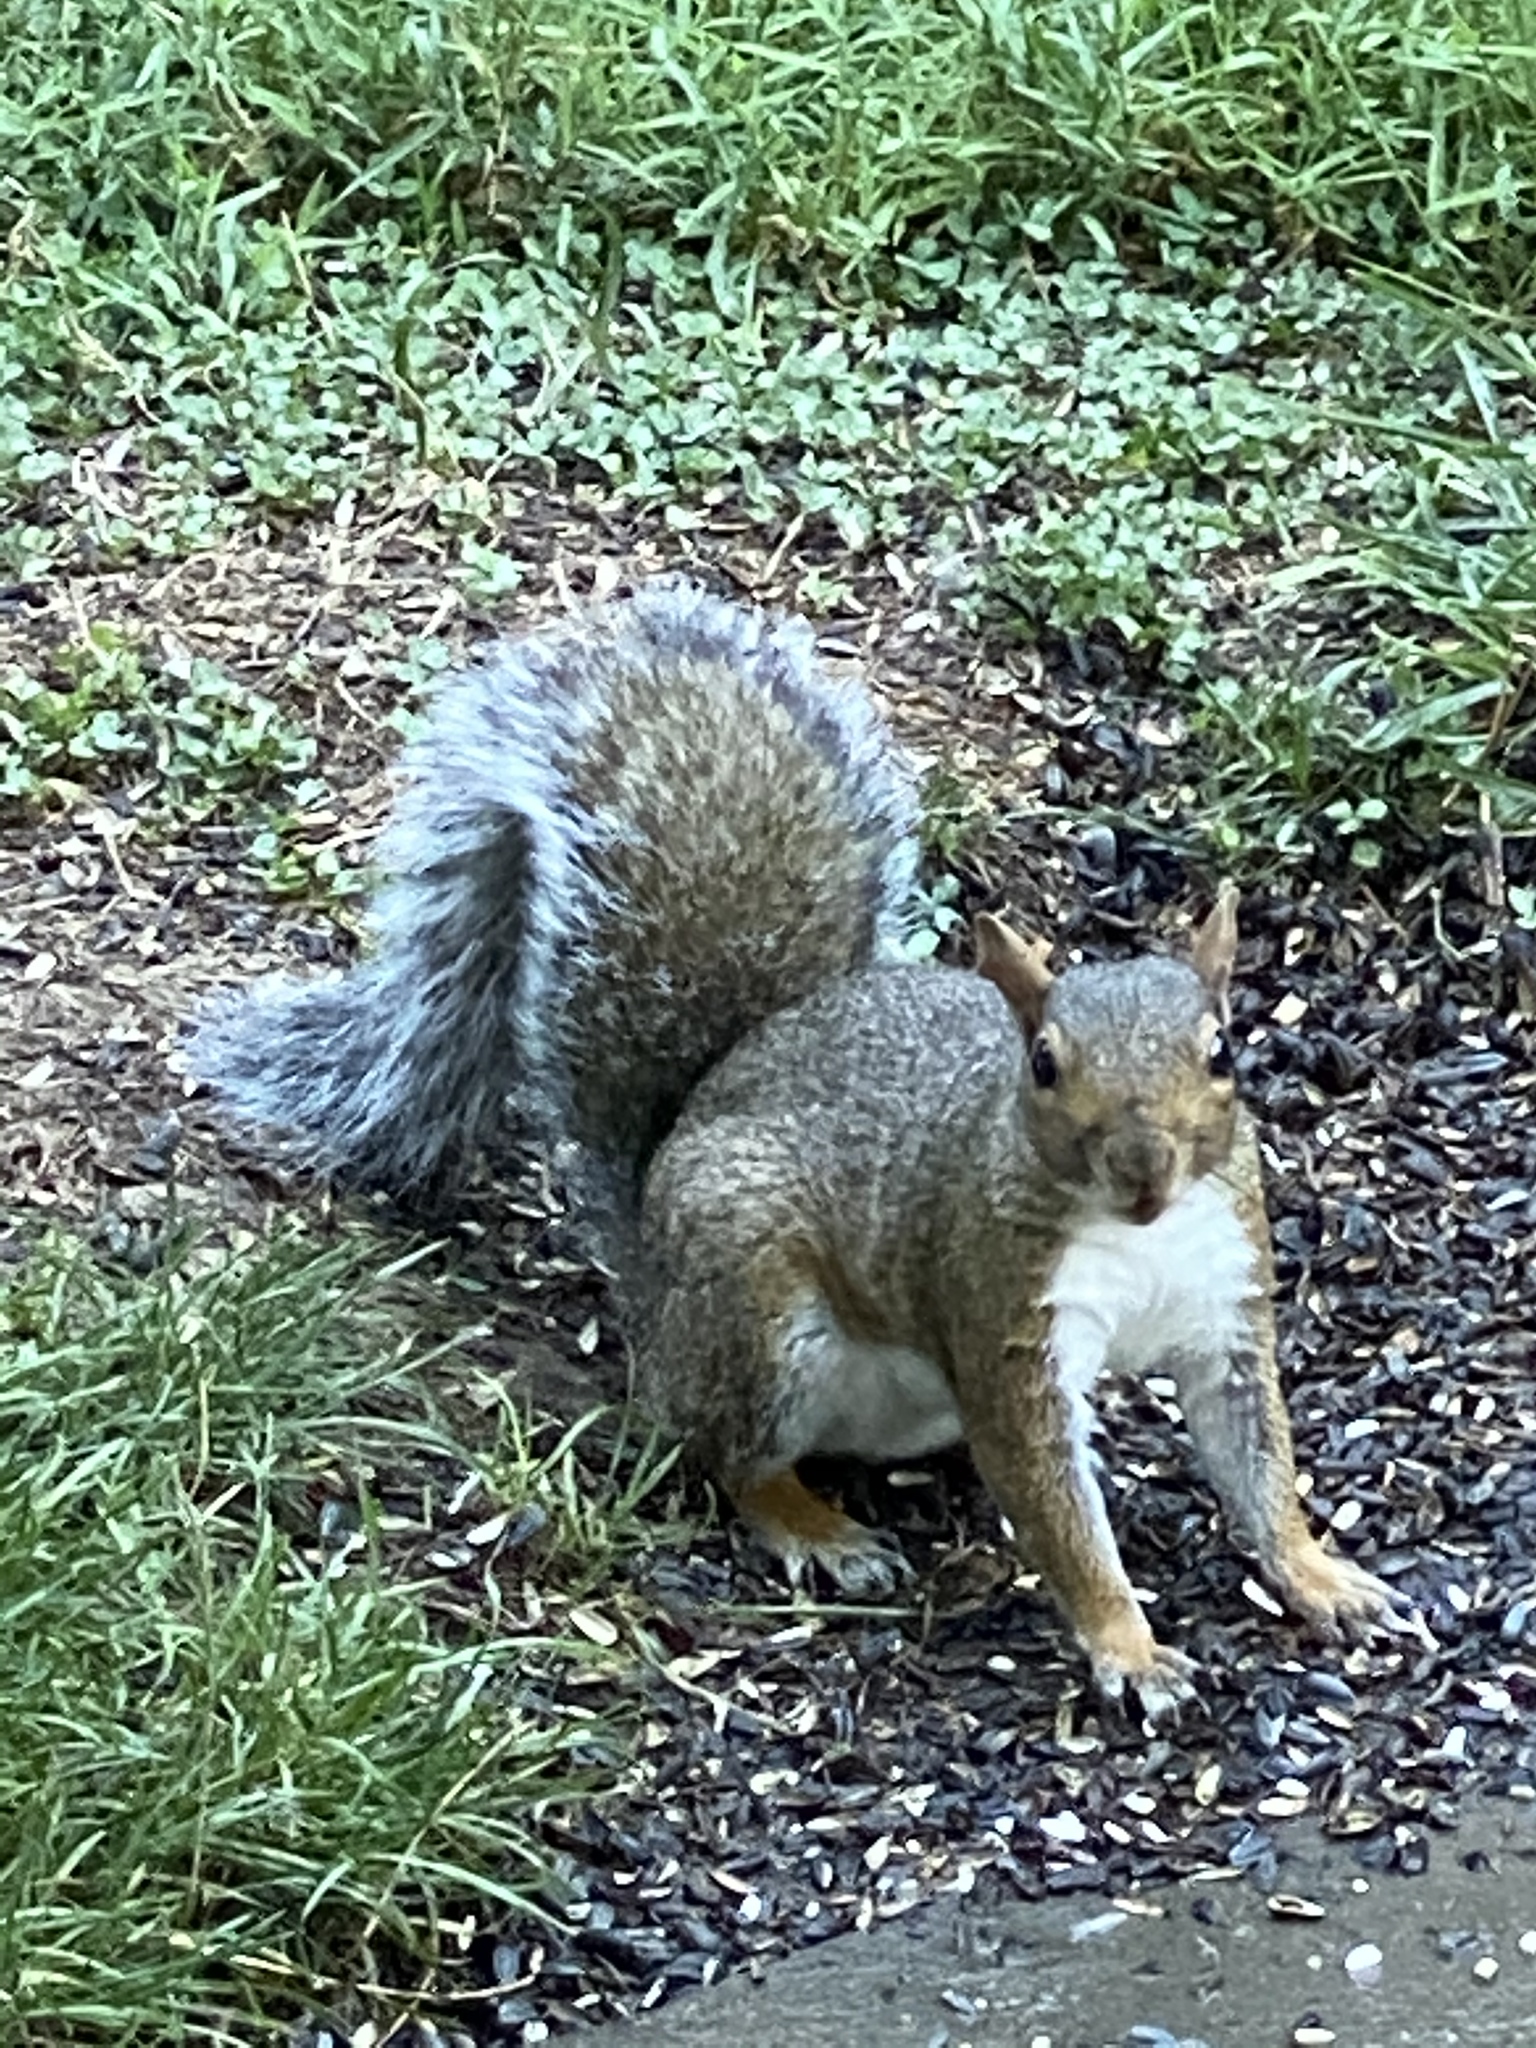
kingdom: Animalia
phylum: Chordata
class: Mammalia
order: Rodentia
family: Sciuridae
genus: Sciurus
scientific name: Sciurus carolinensis
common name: Eastern gray squirrel
